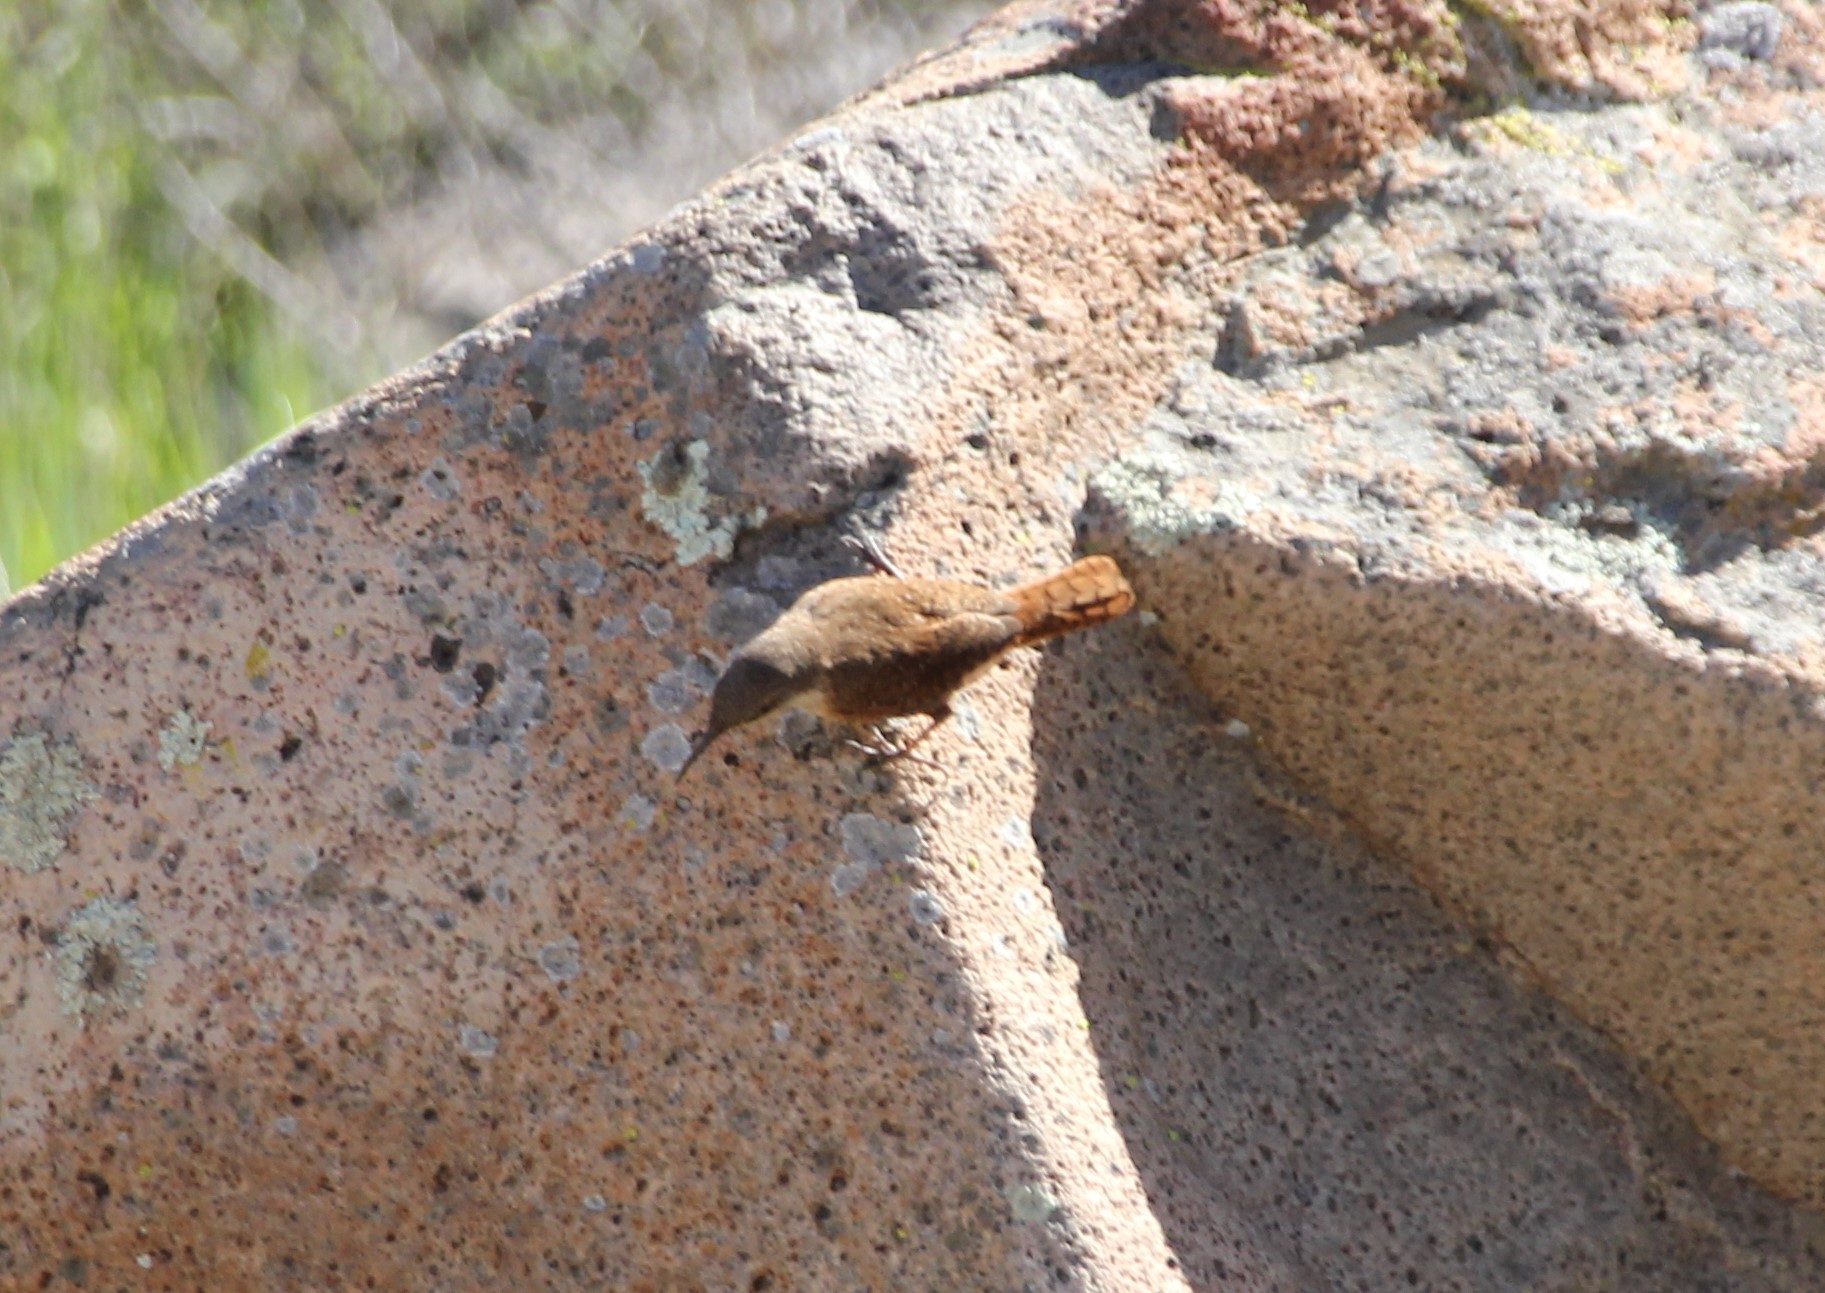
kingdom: Animalia
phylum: Chordata
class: Aves
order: Passeriformes
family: Troglodytidae
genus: Catherpes
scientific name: Catherpes mexicanus
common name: Canyon wren
